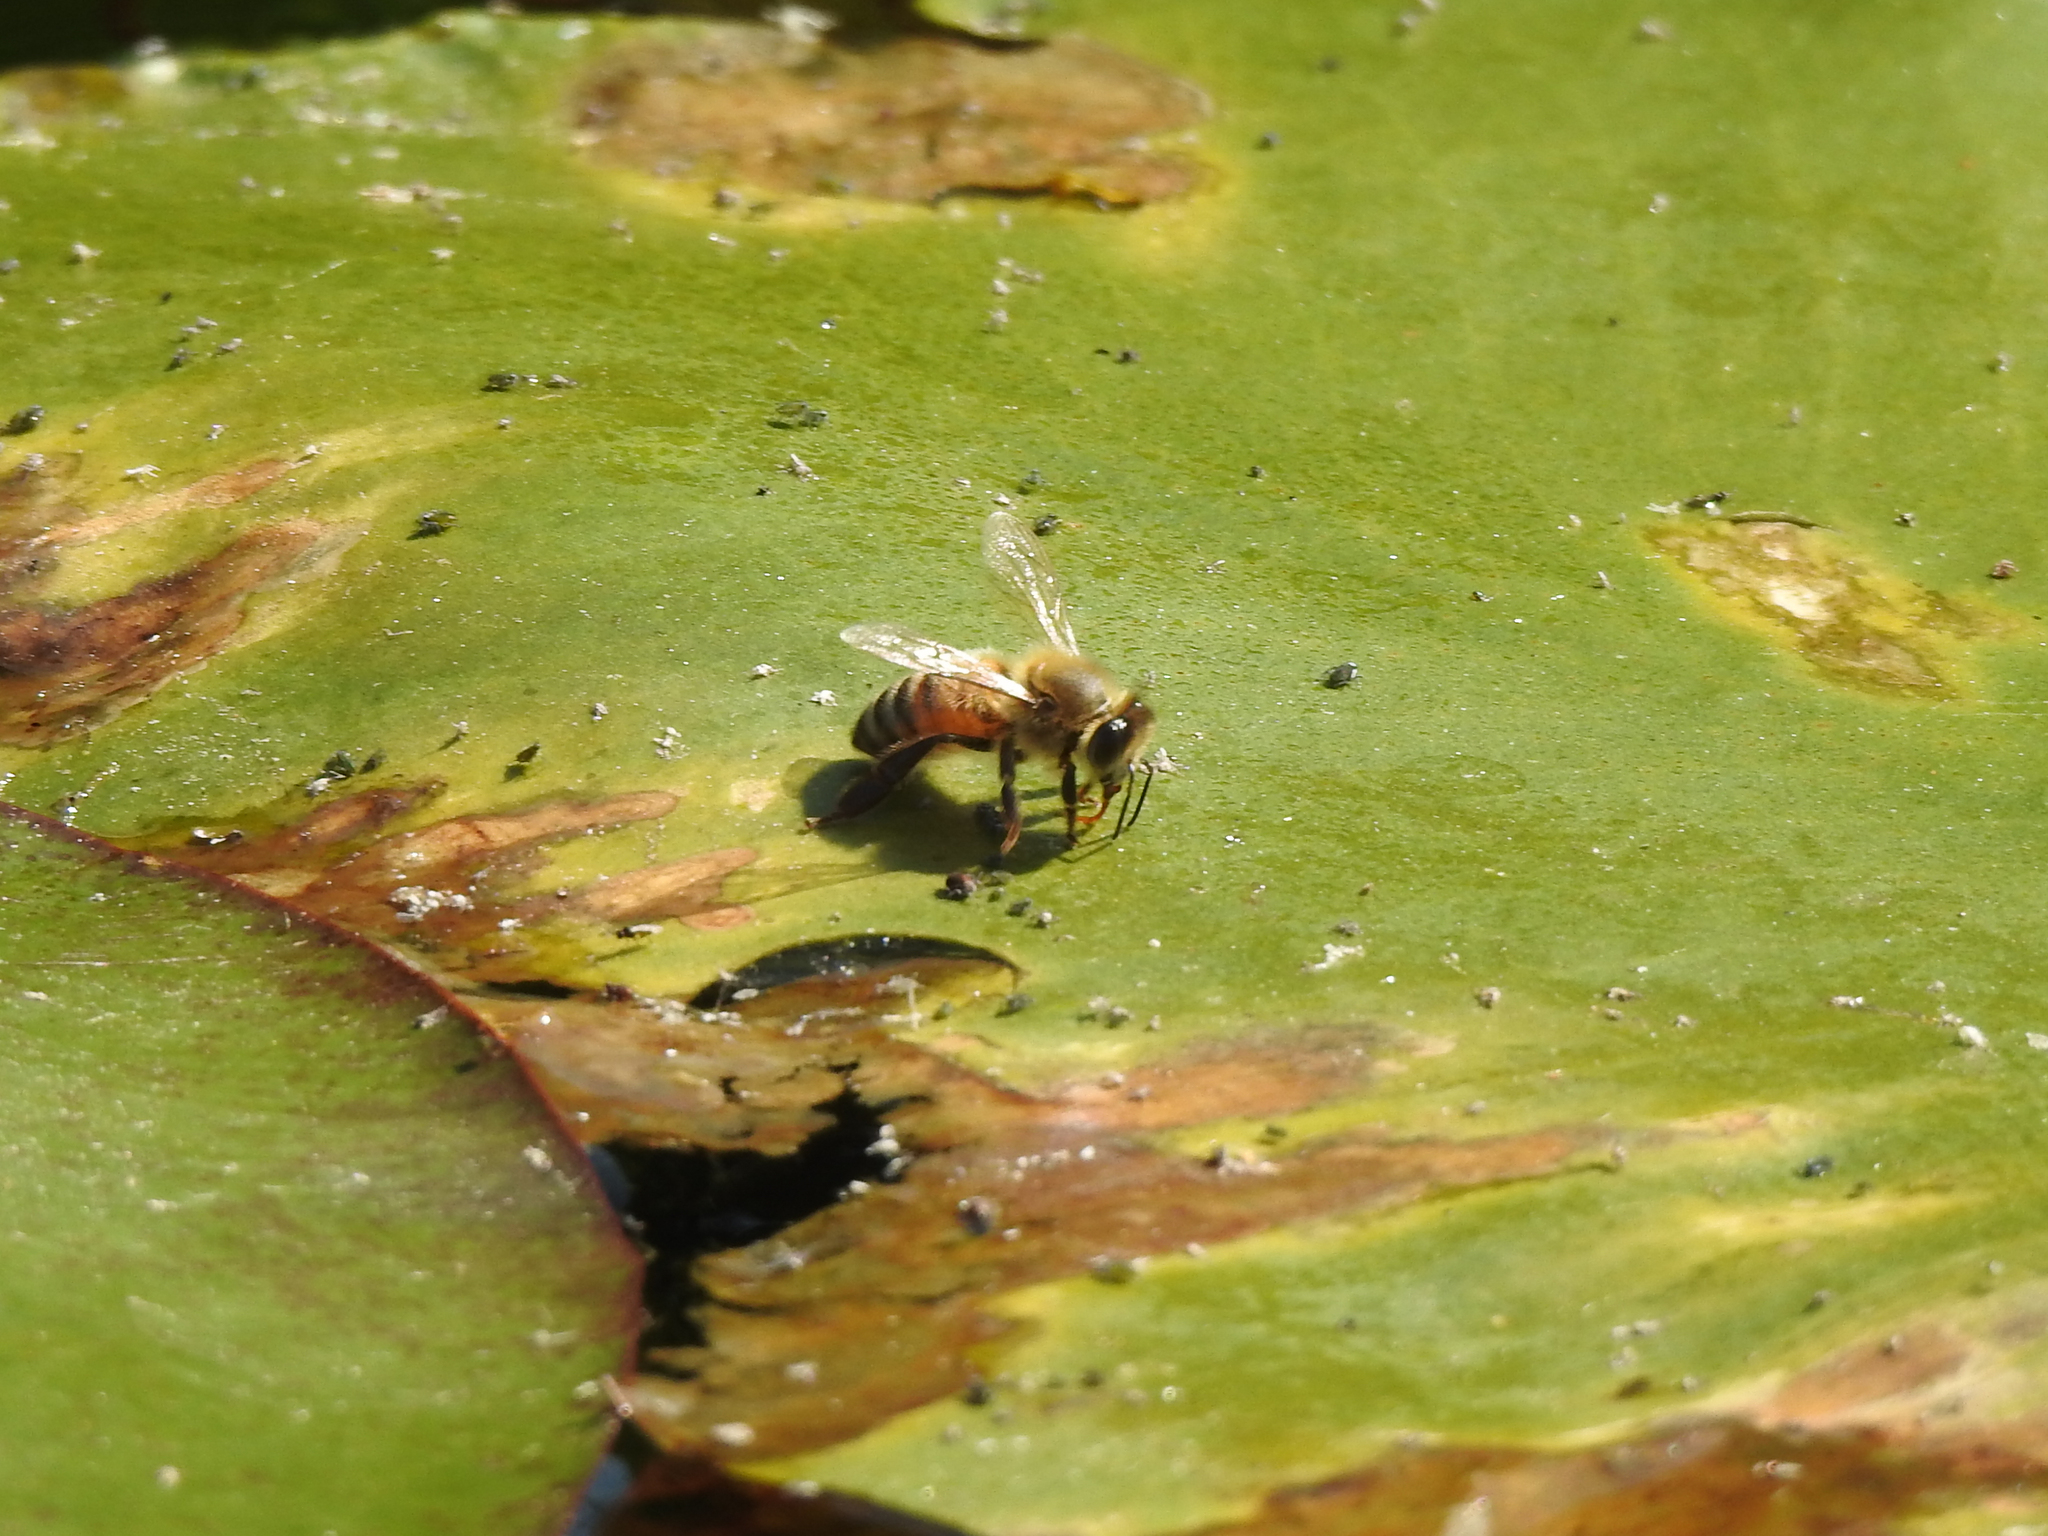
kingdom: Animalia
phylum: Arthropoda
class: Insecta
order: Hymenoptera
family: Apidae
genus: Apis
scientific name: Apis mellifera
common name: Honey bee
